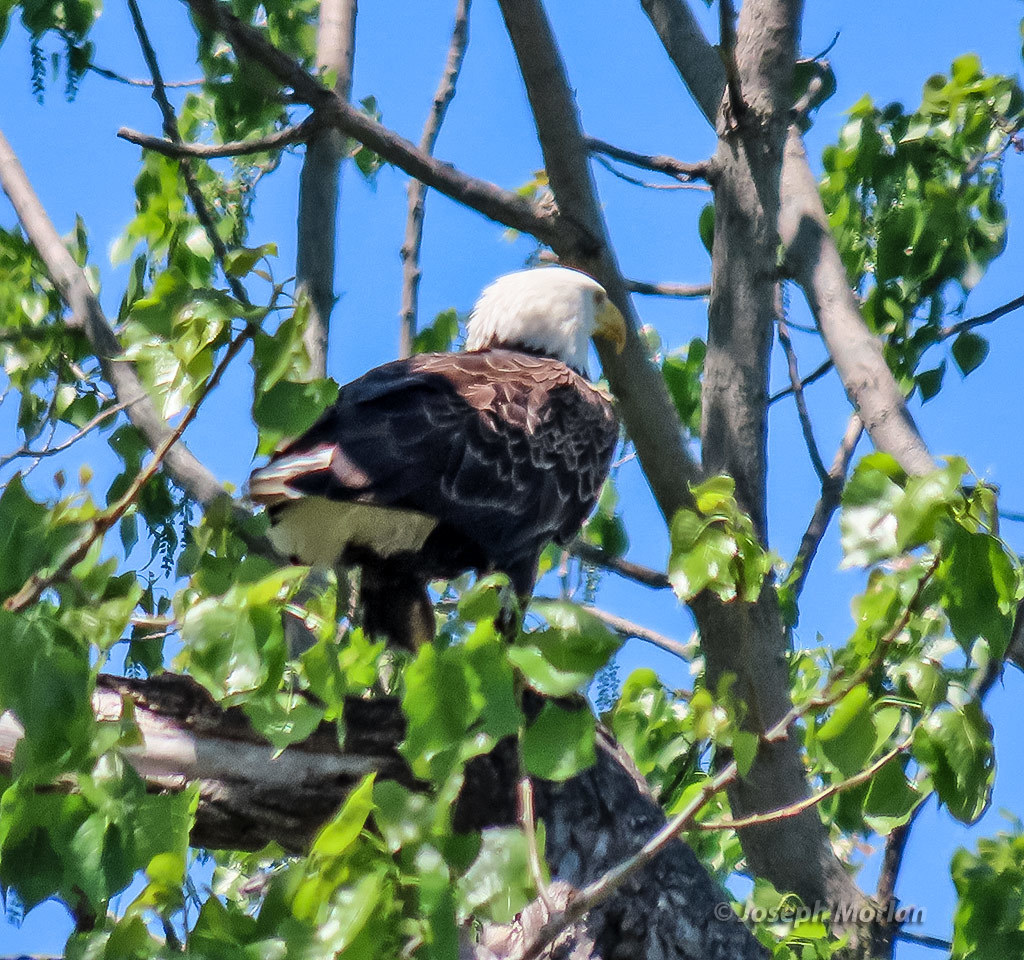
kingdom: Animalia
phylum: Chordata
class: Aves
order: Accipitriformes
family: Accipitridae
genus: Haliaeetus
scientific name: Haliaeetus leucocephalus
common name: Bald eagle
